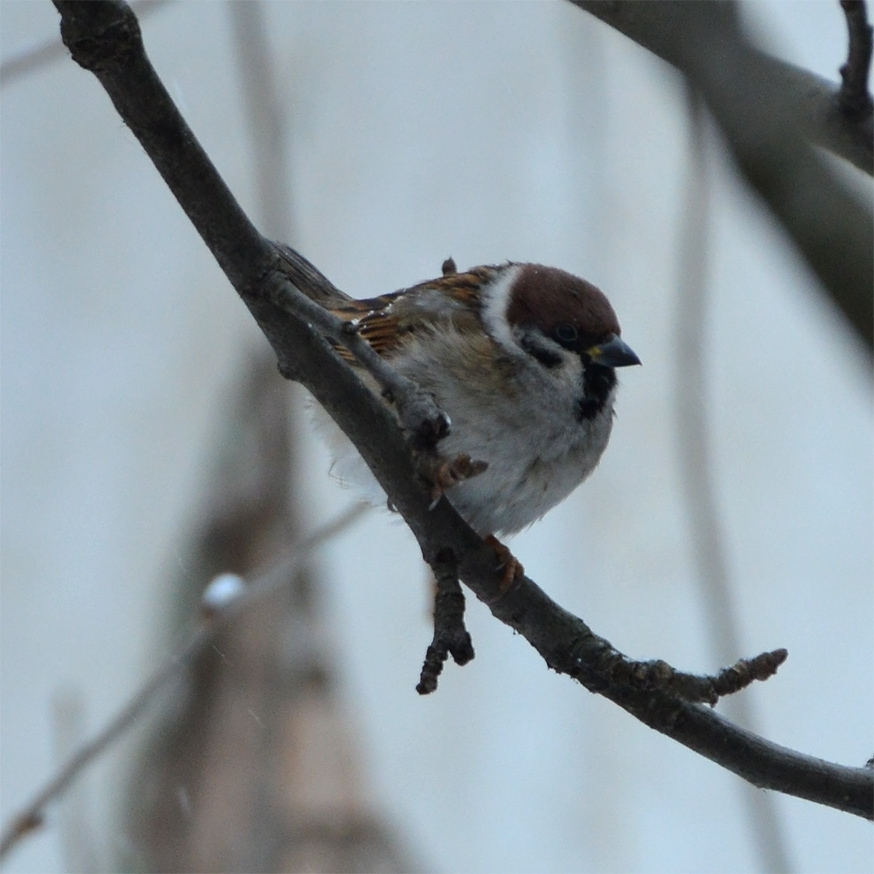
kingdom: Animalia
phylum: Chordata
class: Aves
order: Passeriformes
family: Passeridae
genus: Passer
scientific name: Passer montanus
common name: Eurasian tree sparrow
